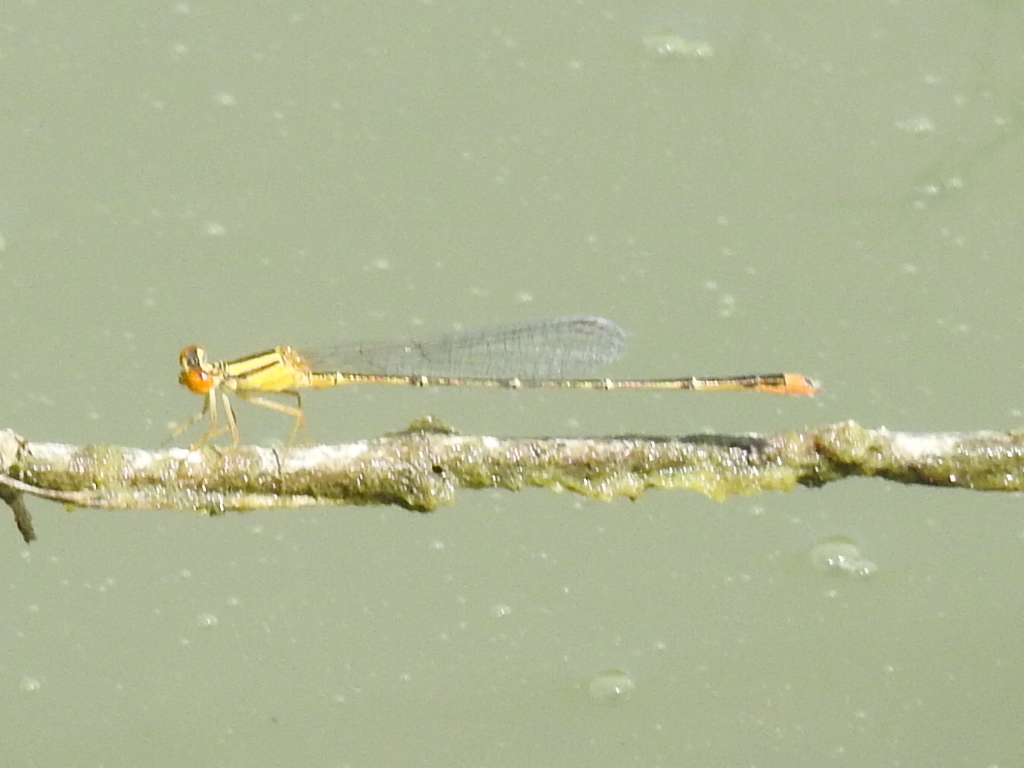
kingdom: Animalia
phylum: Arthropoda
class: Insecta
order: Odonata
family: Coenagrionidae
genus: Enallagma
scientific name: Enallagma signatum
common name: Orange bluet
